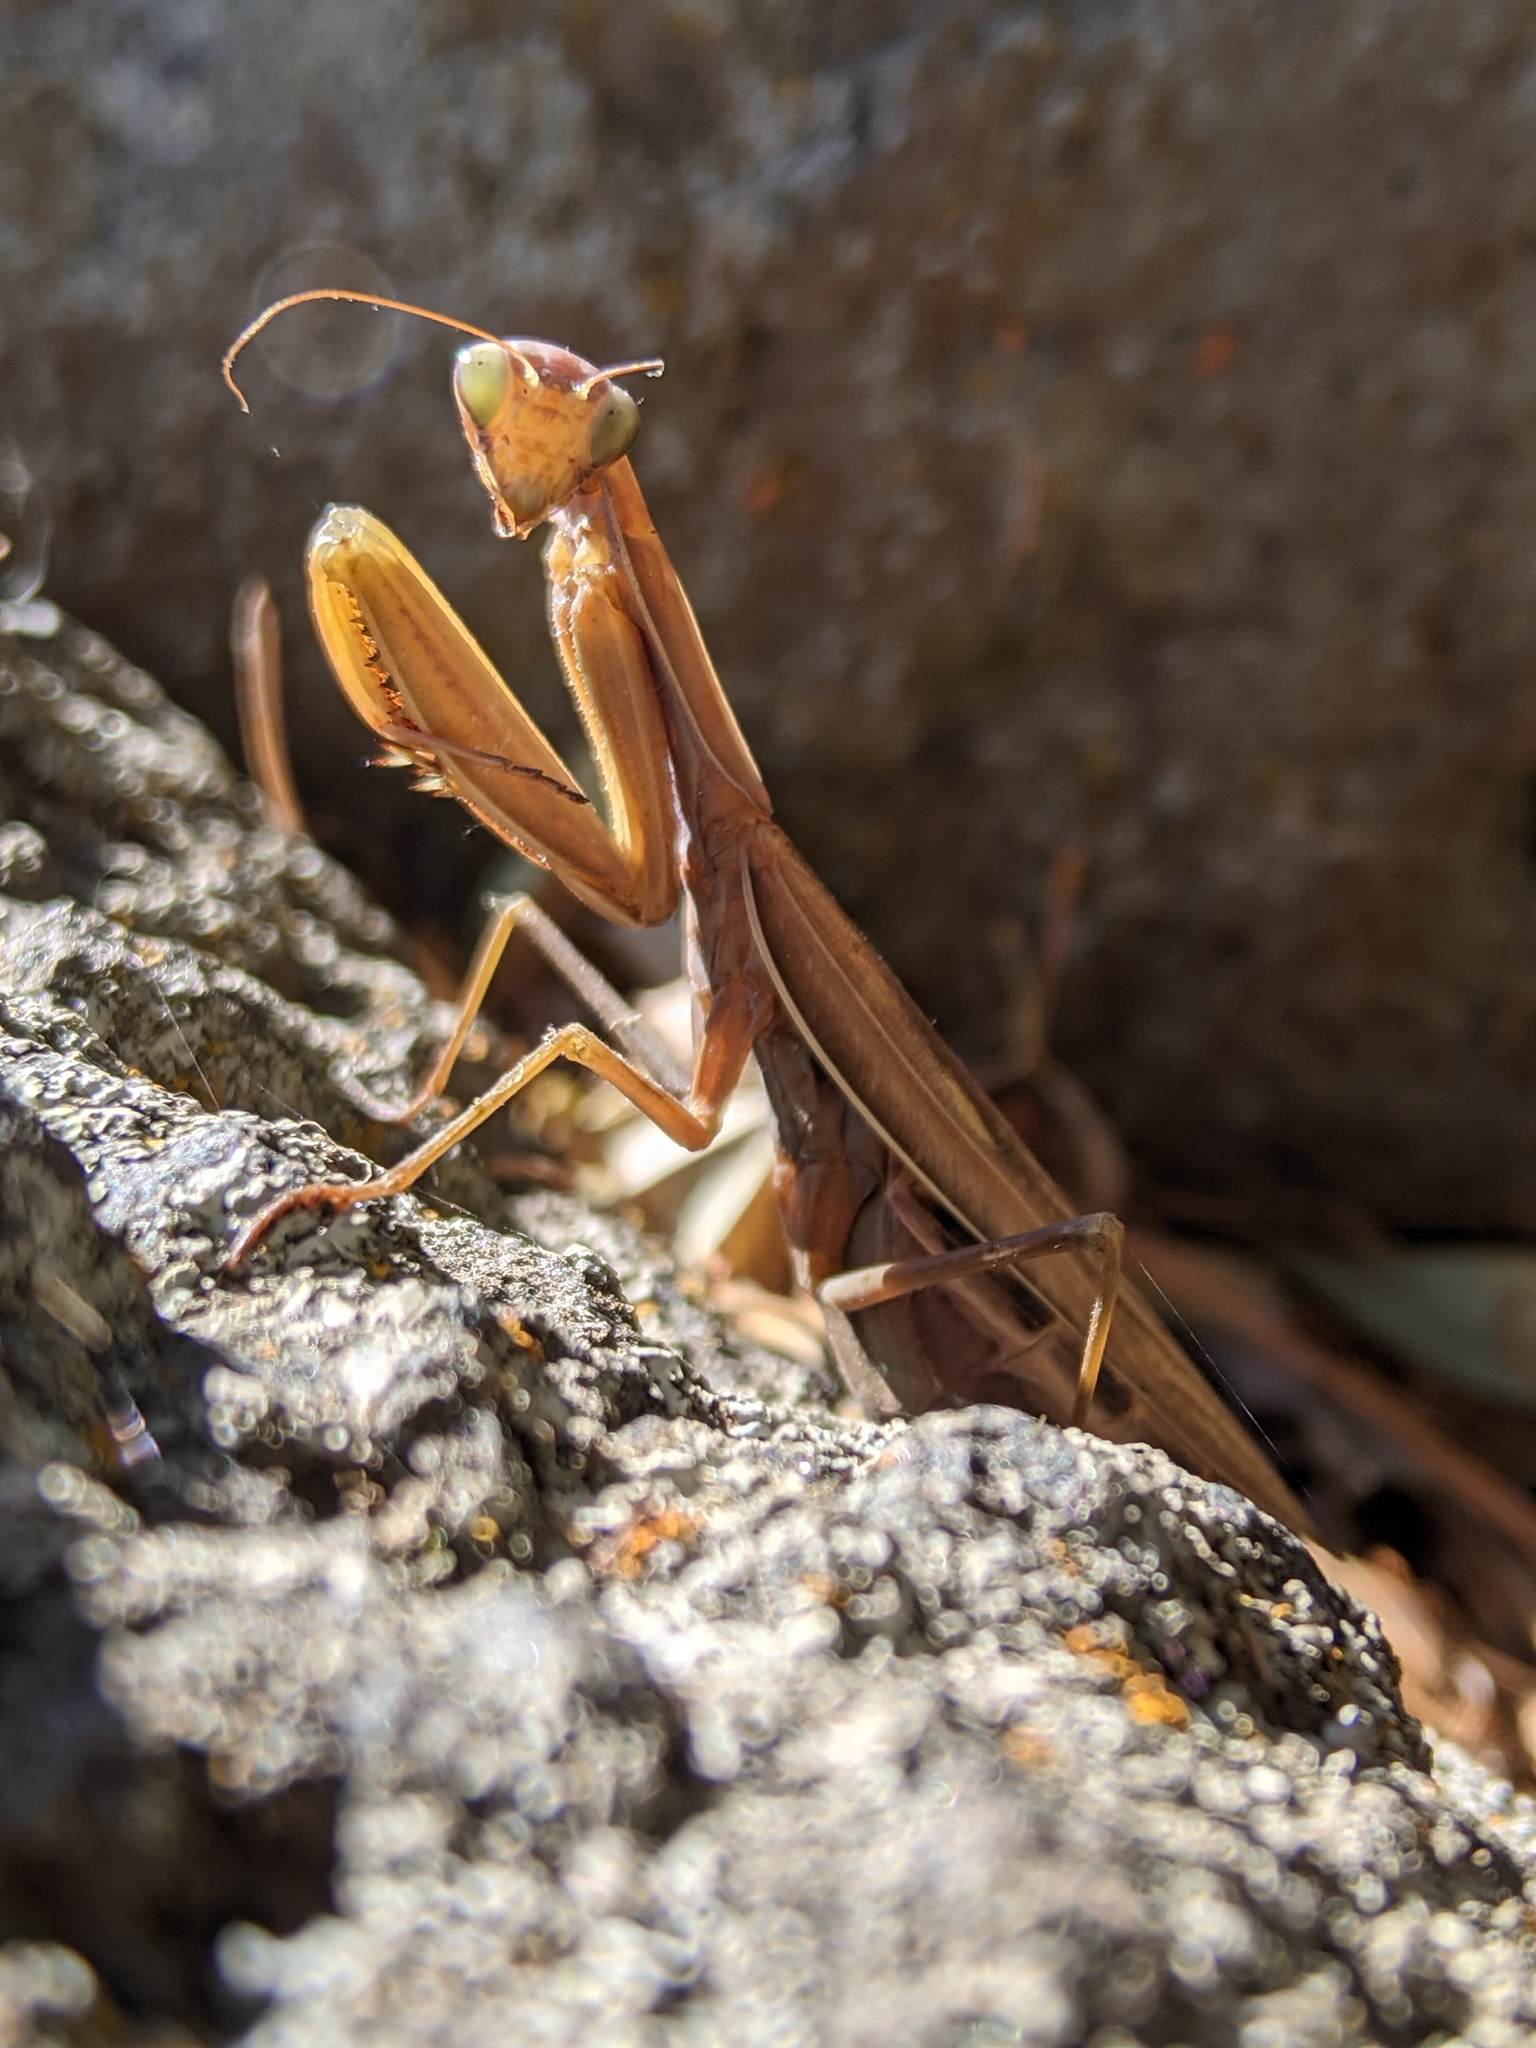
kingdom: Animalia
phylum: Arthropoda
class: Insecta
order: Mantodea
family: Mantidae
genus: Mantis
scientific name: Mantis religiosa
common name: Praying mantis
